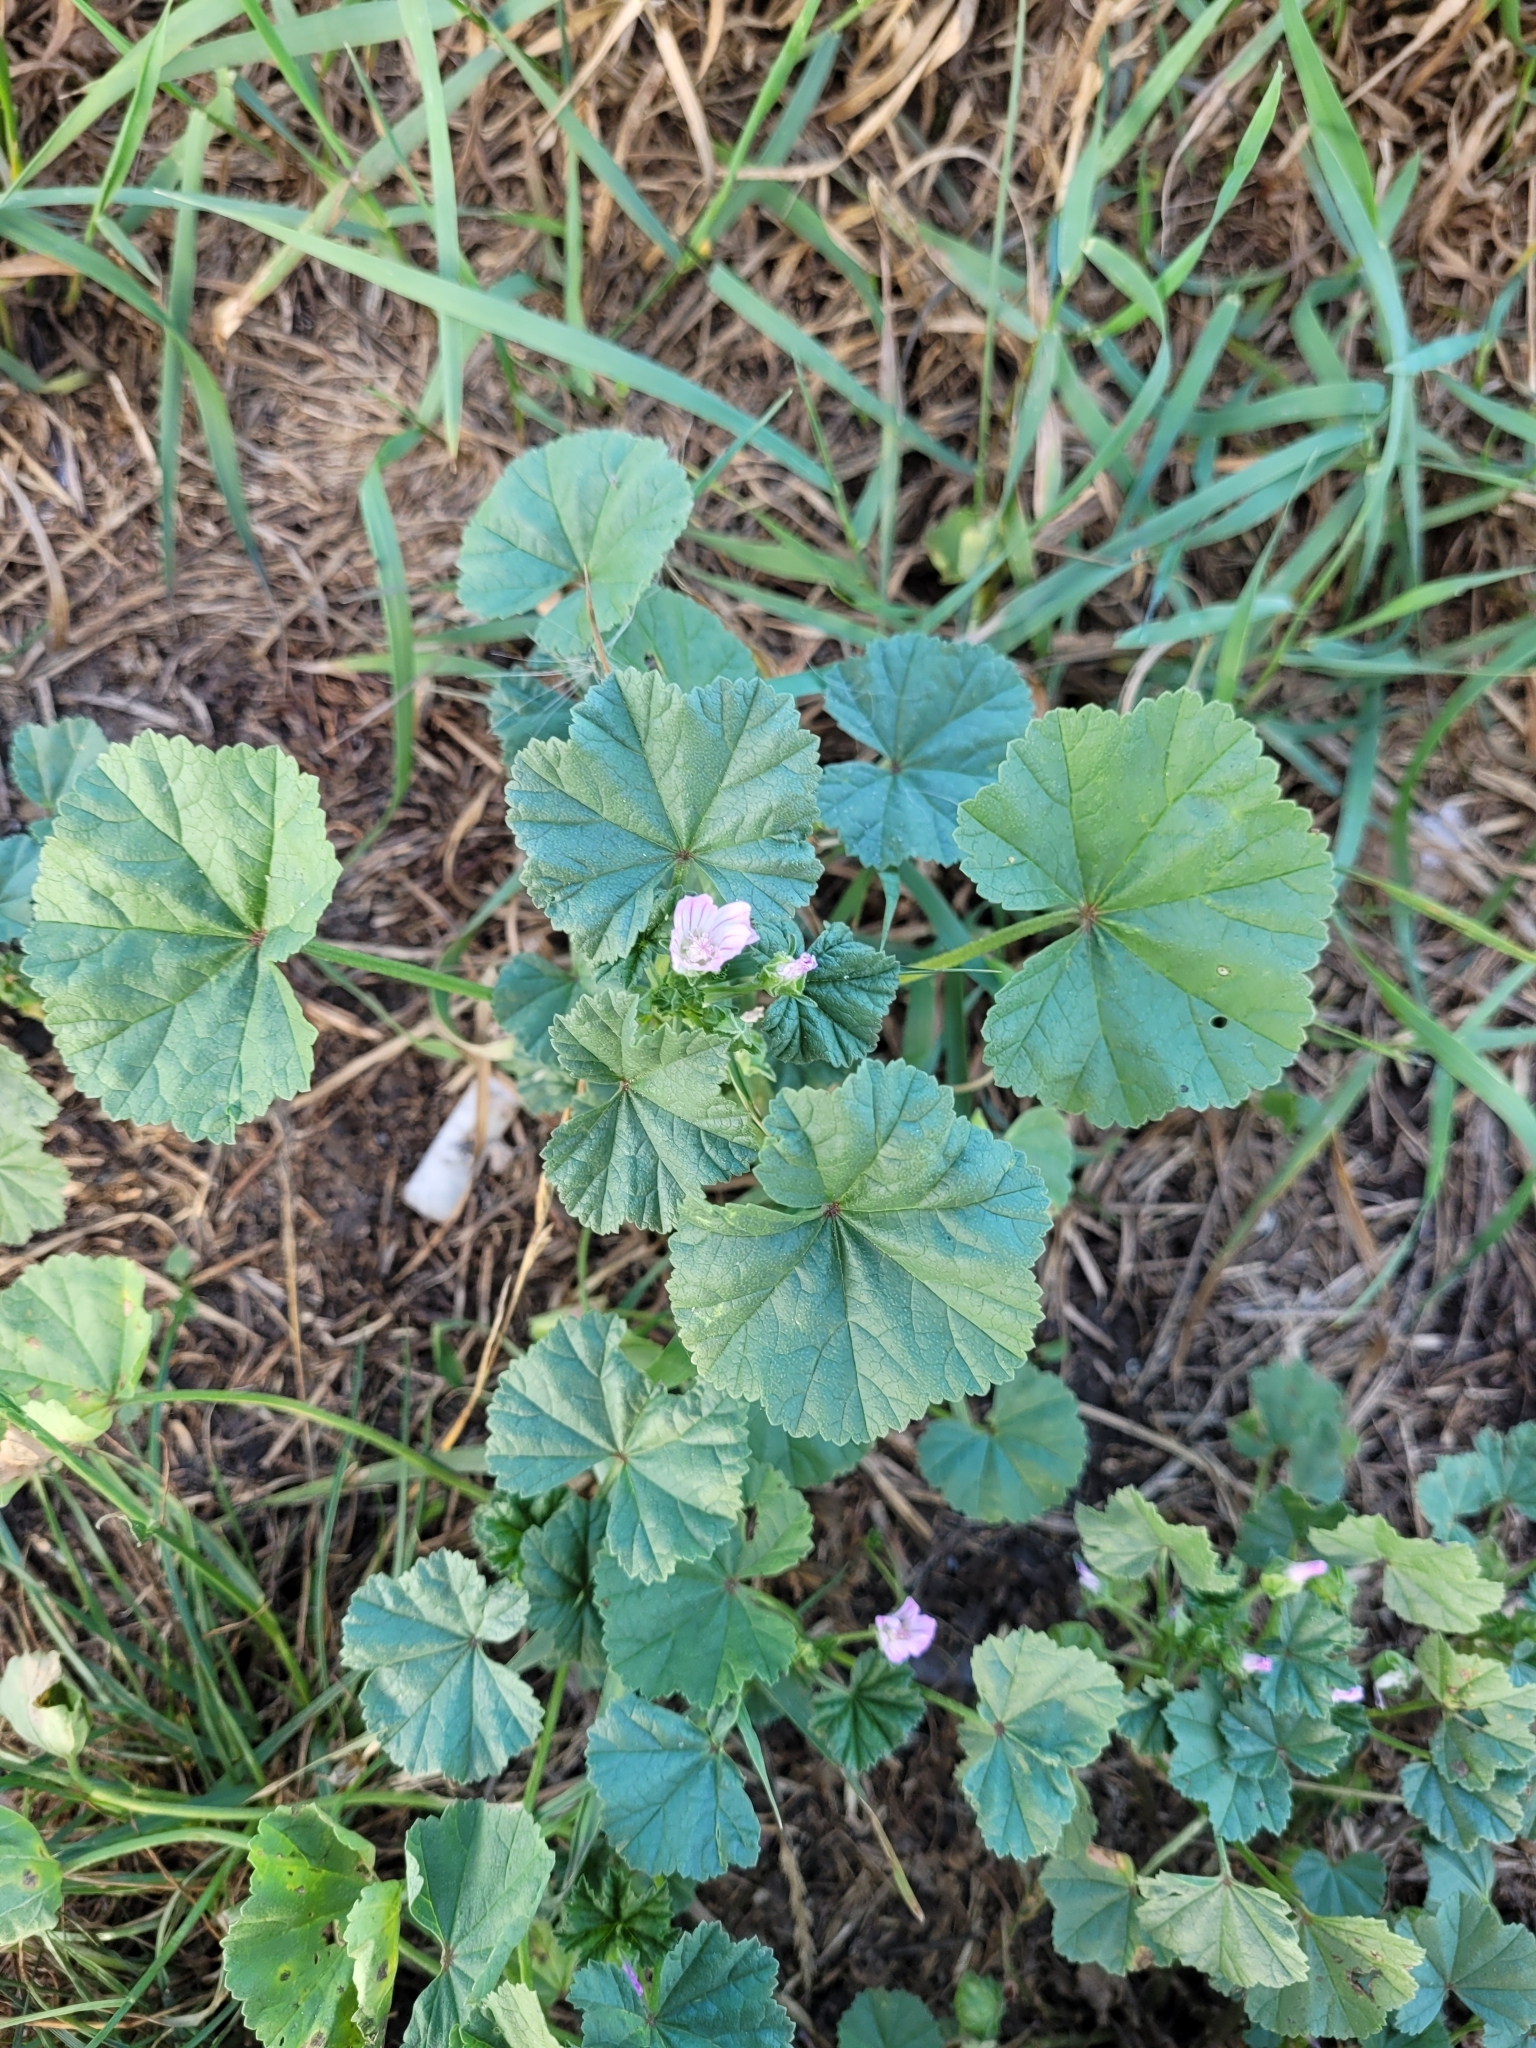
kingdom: Plantae
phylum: Tracheophyta
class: Magnoliopsida
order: Malvales
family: Malvaceae
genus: Malva
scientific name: Malva neglecta
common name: Common mallow
